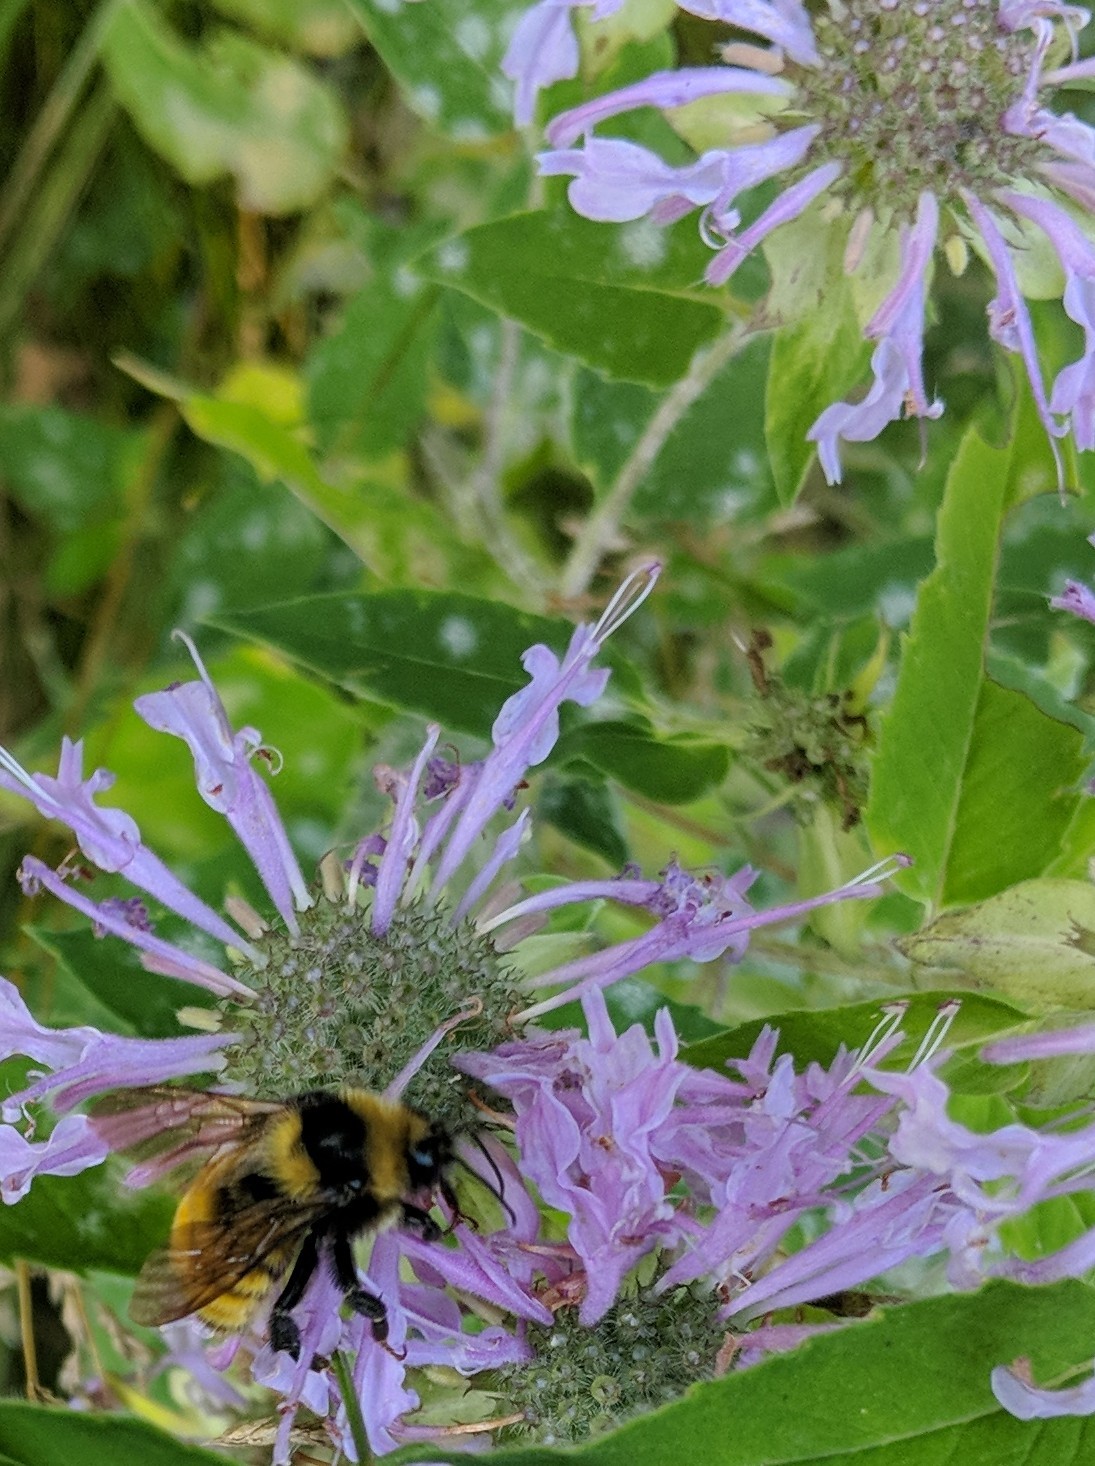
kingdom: Animalia
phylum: Arthropoda
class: Insecta
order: Hymenoptera
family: Apidae
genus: Bombus
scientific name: Bombus borealis
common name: Northern amber bumble bee
